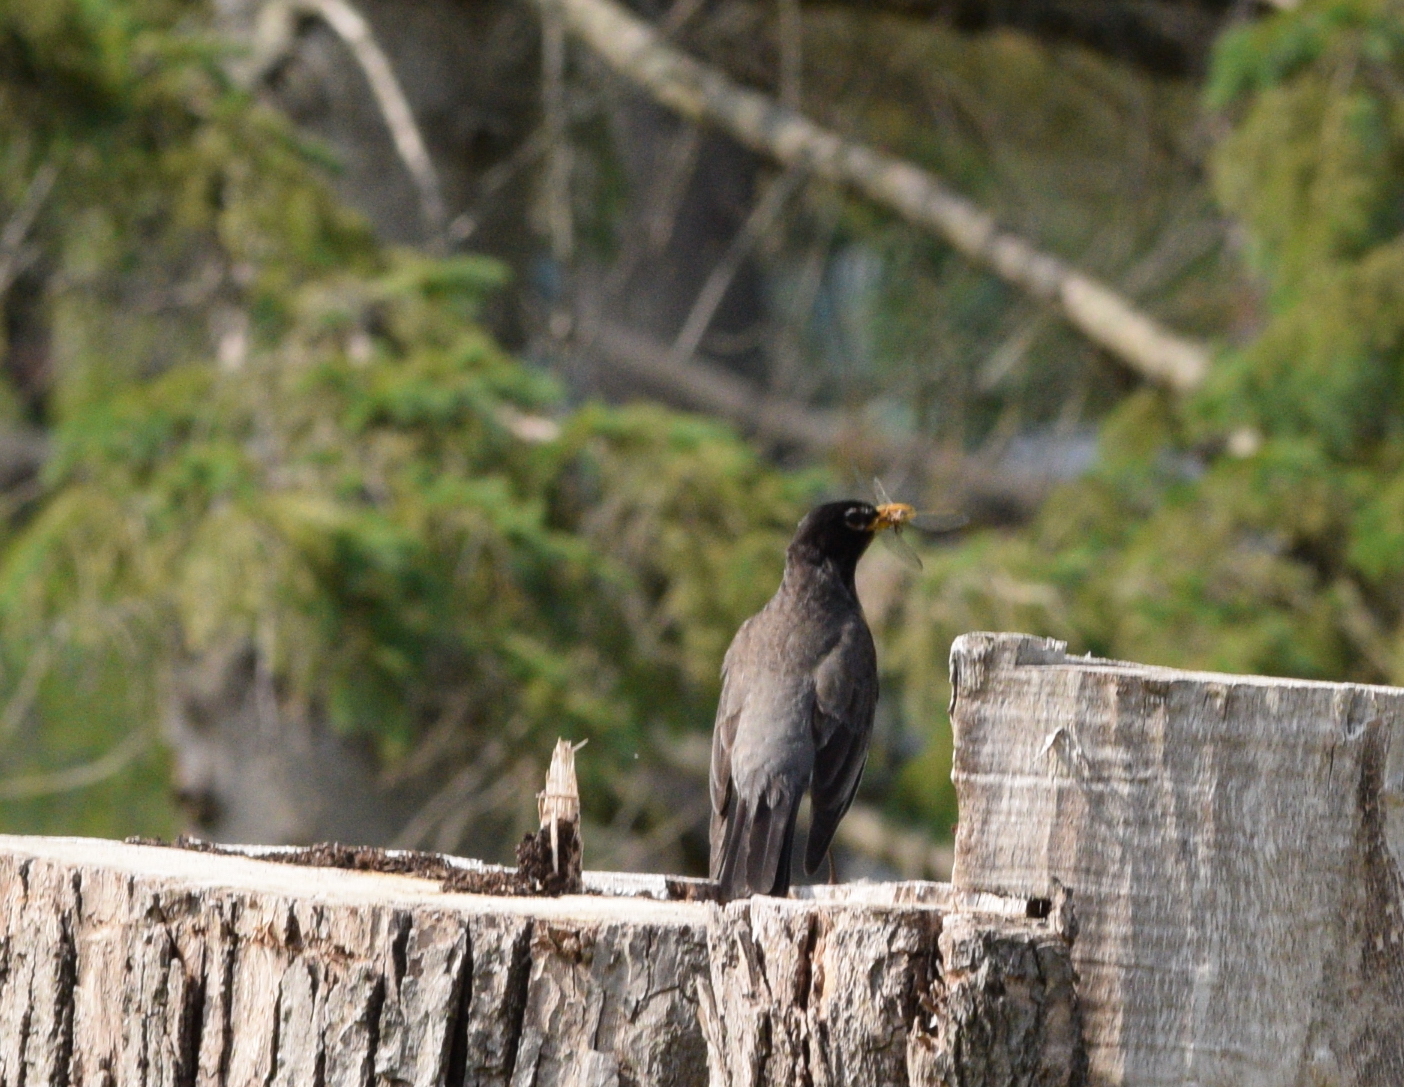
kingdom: Animalia
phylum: Chordata
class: Aves
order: Passeriformes
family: Turdidae
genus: Turdus
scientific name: Turdus migratorius
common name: American robin
